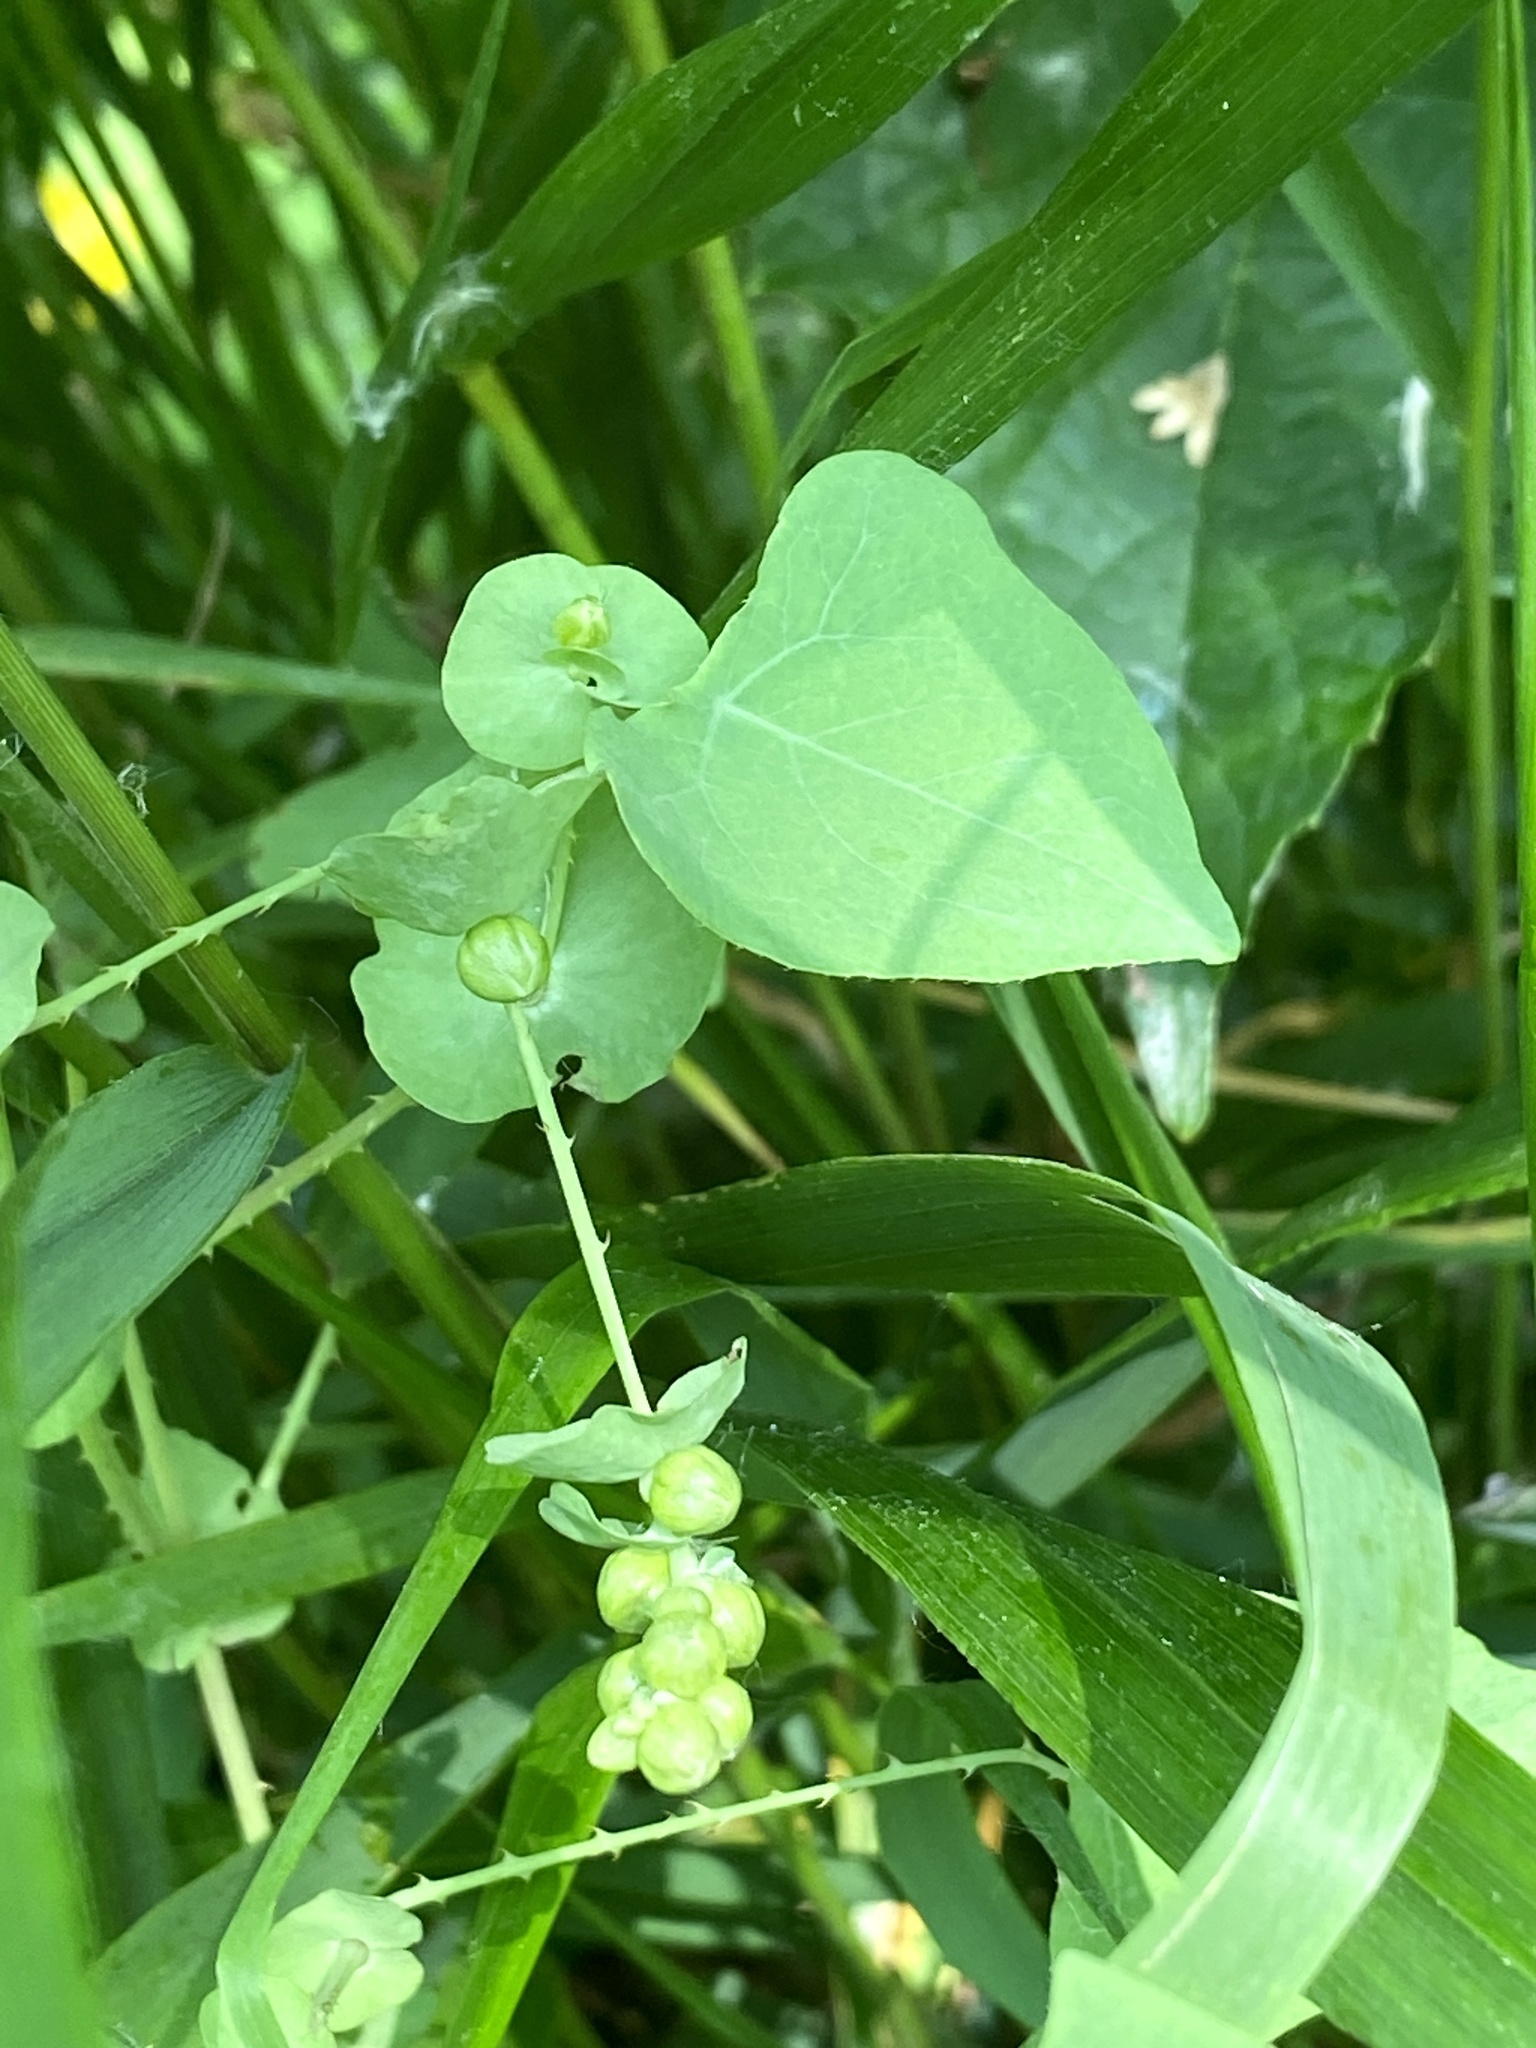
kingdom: Plantae
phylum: Tracheophyta
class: Magnoliopsida
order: Caryophyllales
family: Polygonaceae
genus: Persicaria
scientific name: Persicaria perfoliata
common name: Asiatic tearthumb
